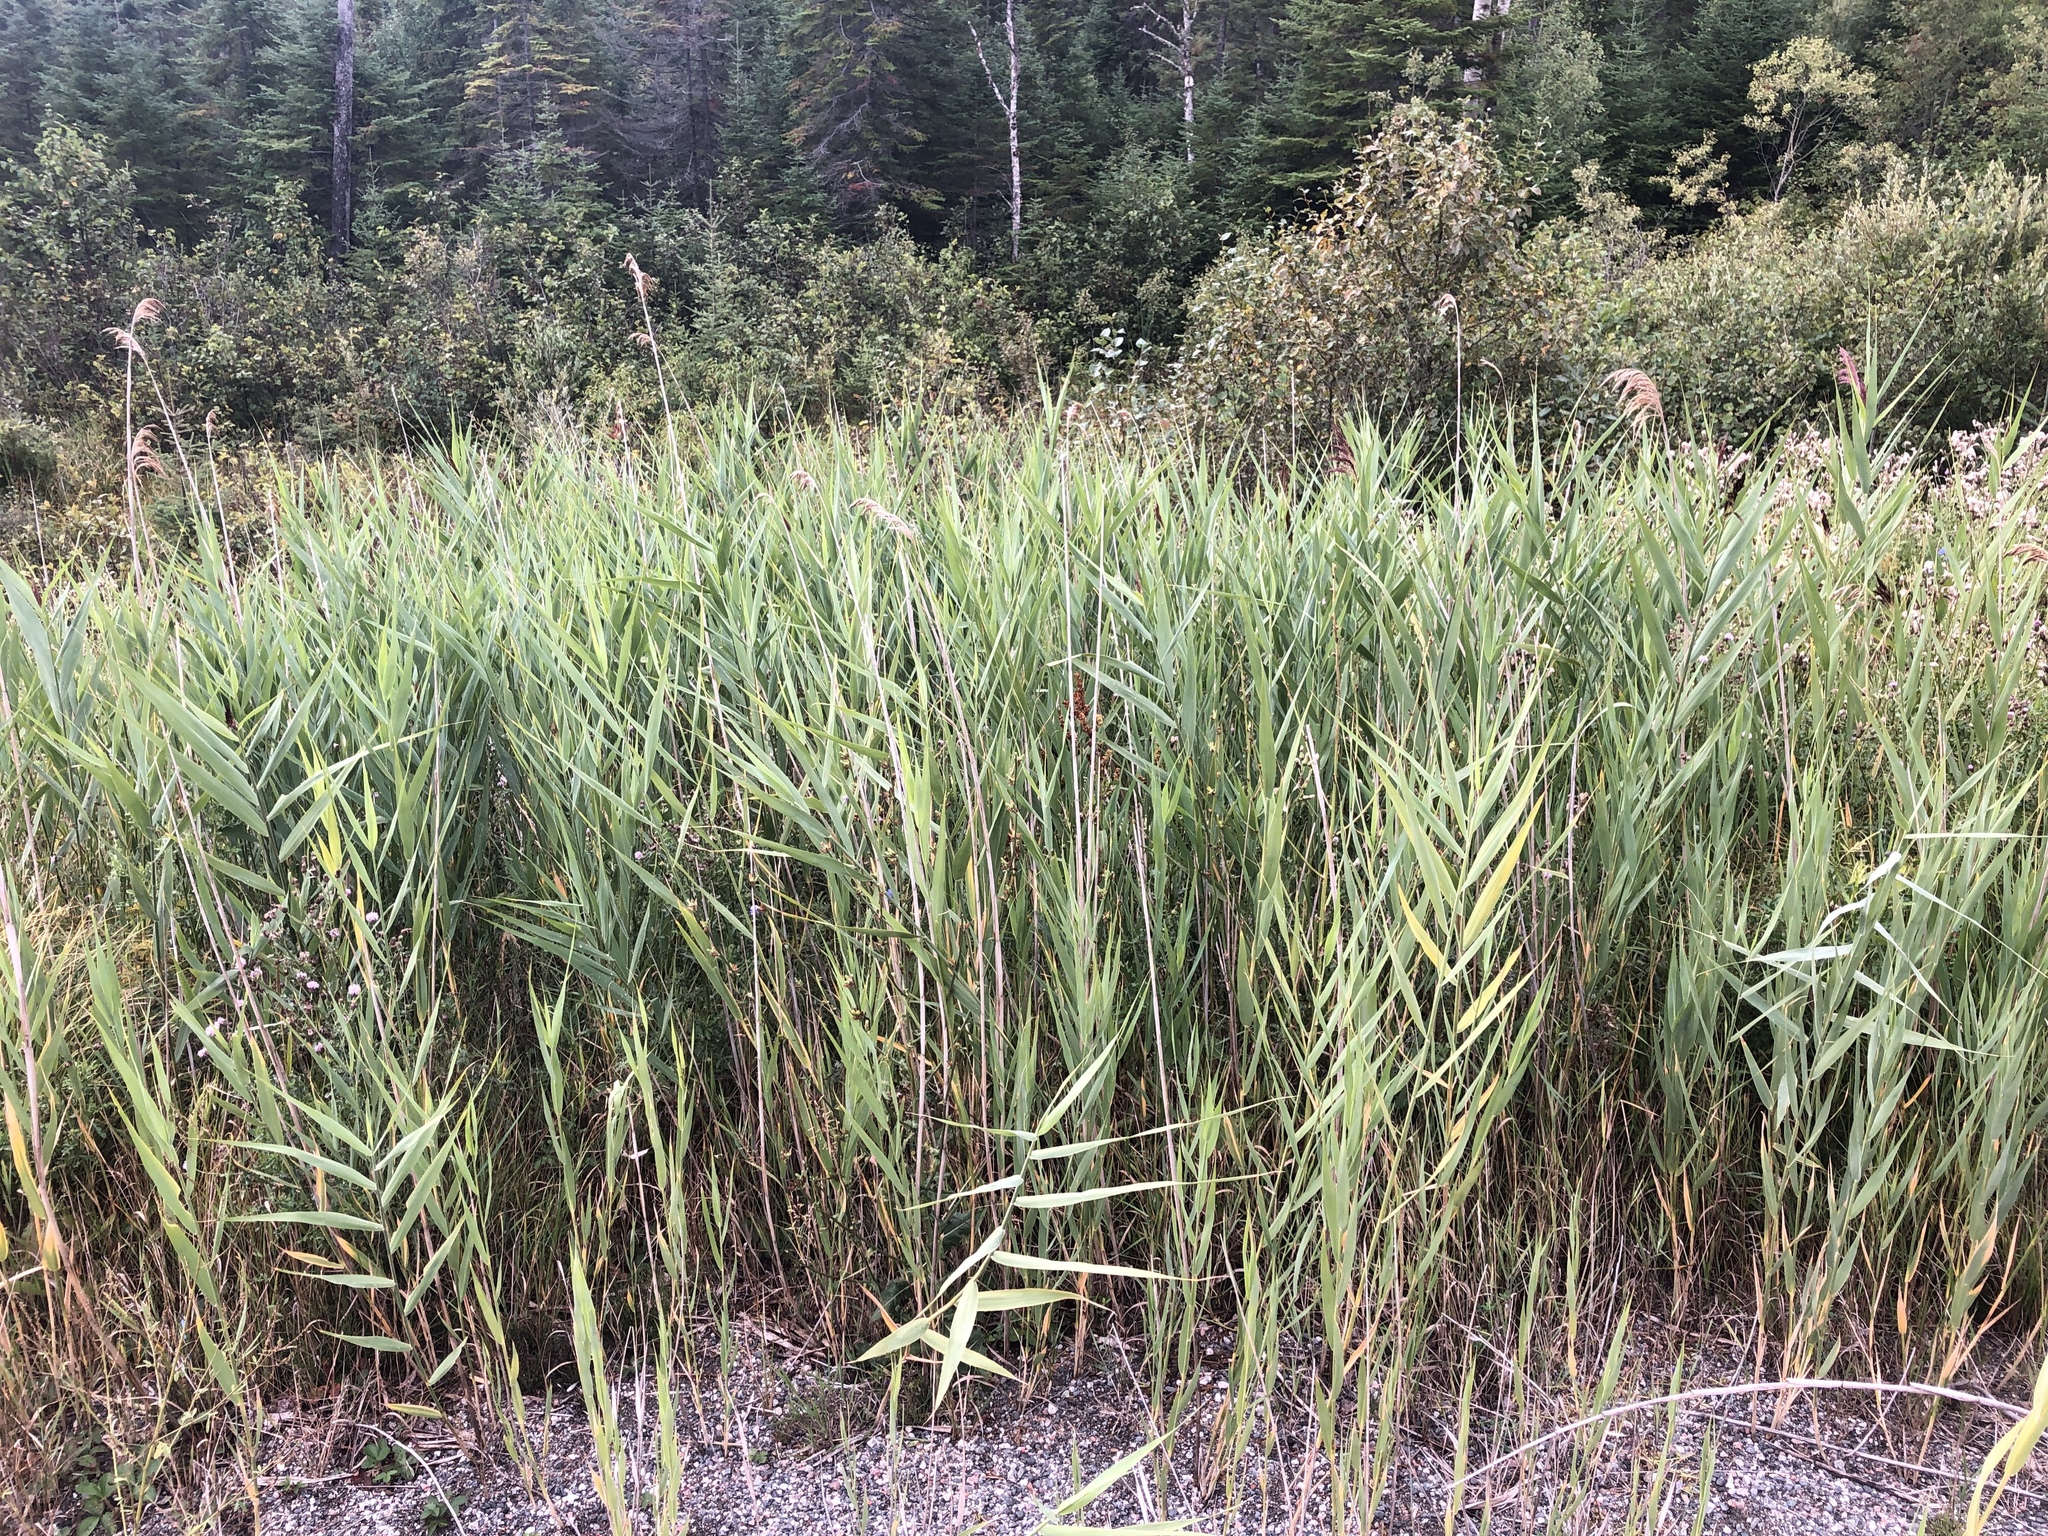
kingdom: Plantae
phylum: Tracheophyta
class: Liliopsida
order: Poales
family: Poaceae
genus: Phragmites
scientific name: Phragmites australis
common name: Common reed
